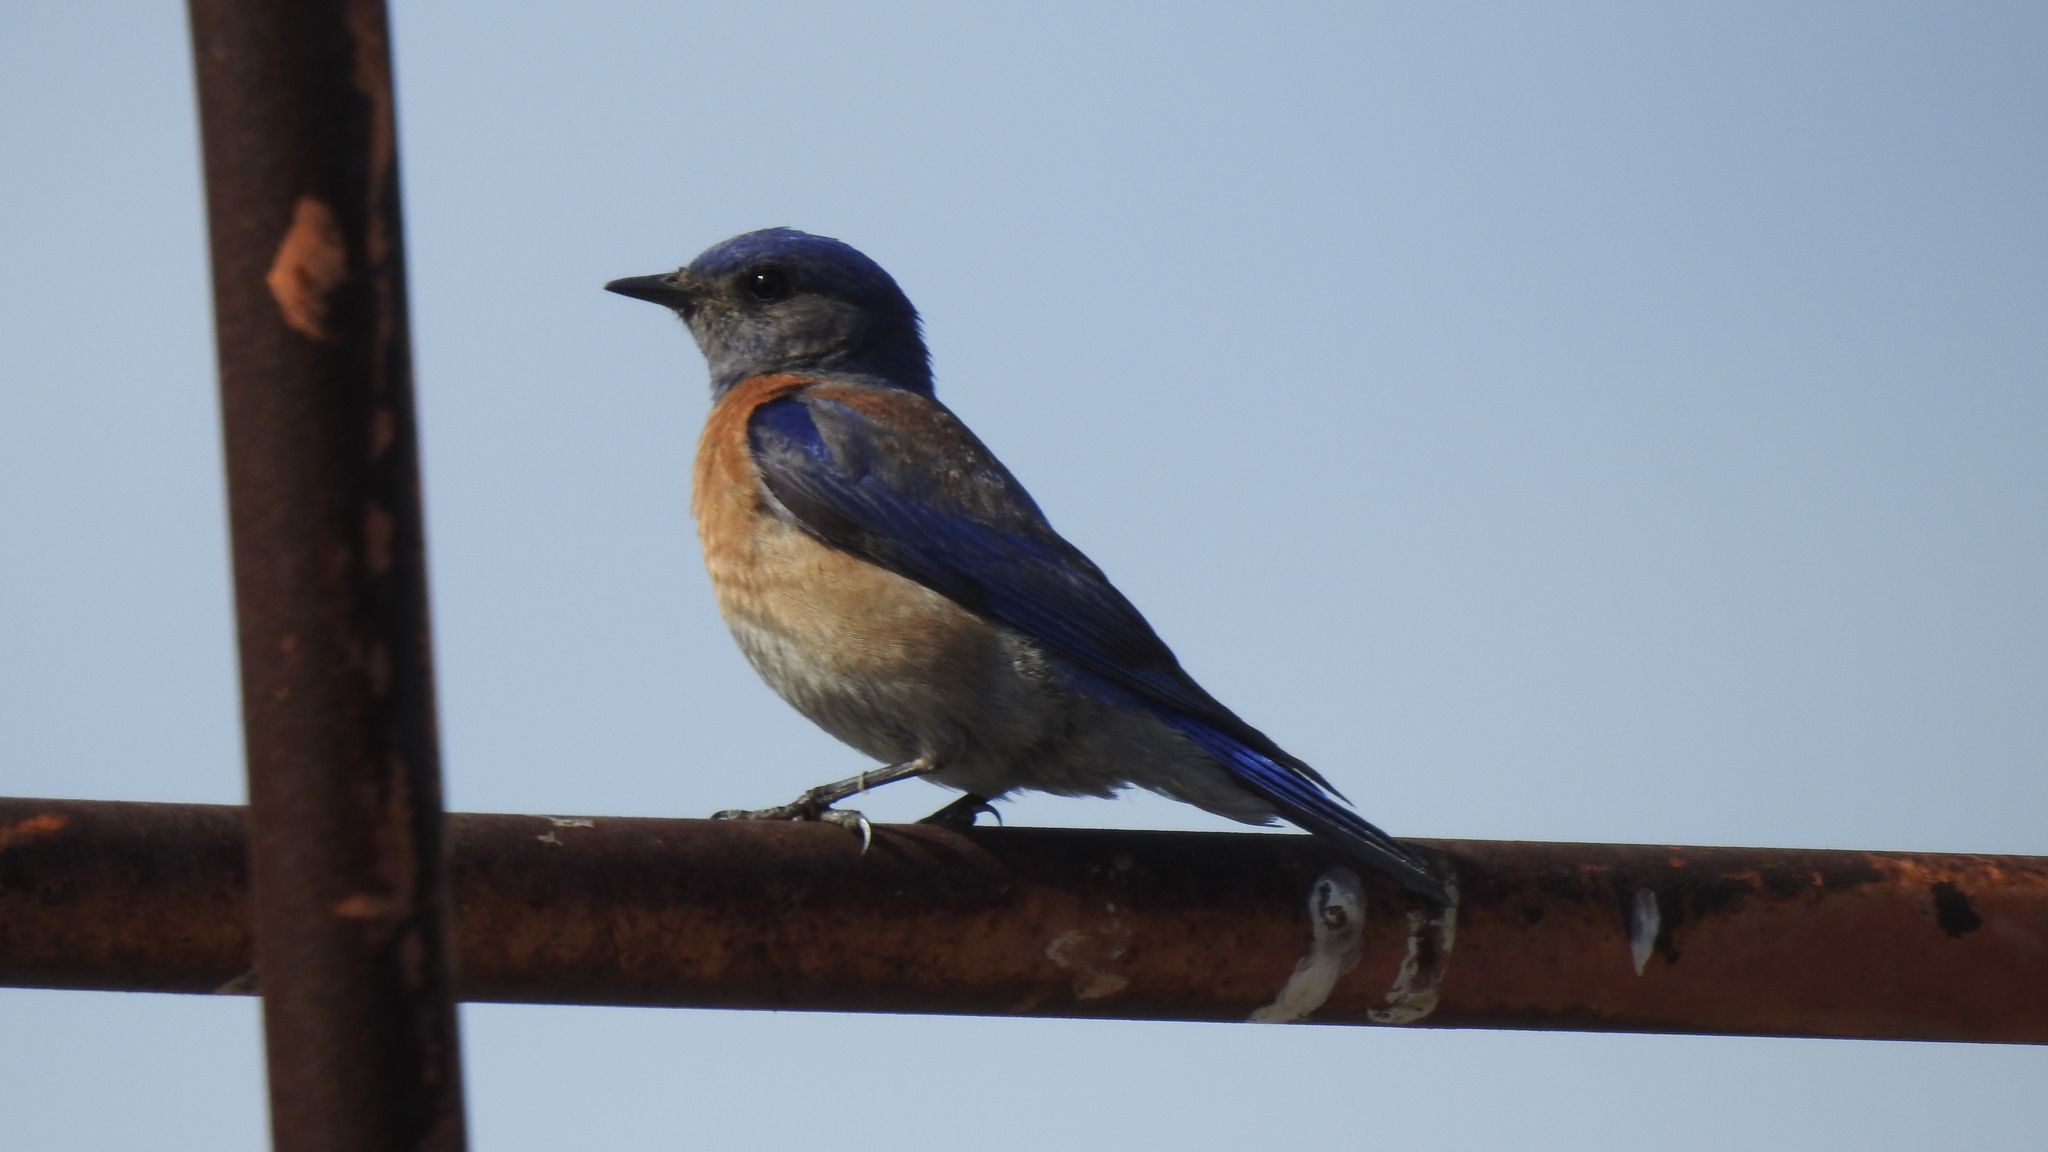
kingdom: Animalia
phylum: Chordata
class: Aves
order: Passeriformes
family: Turdidae
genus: Sialia
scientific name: Sialia mexicana
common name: Western bluebird
